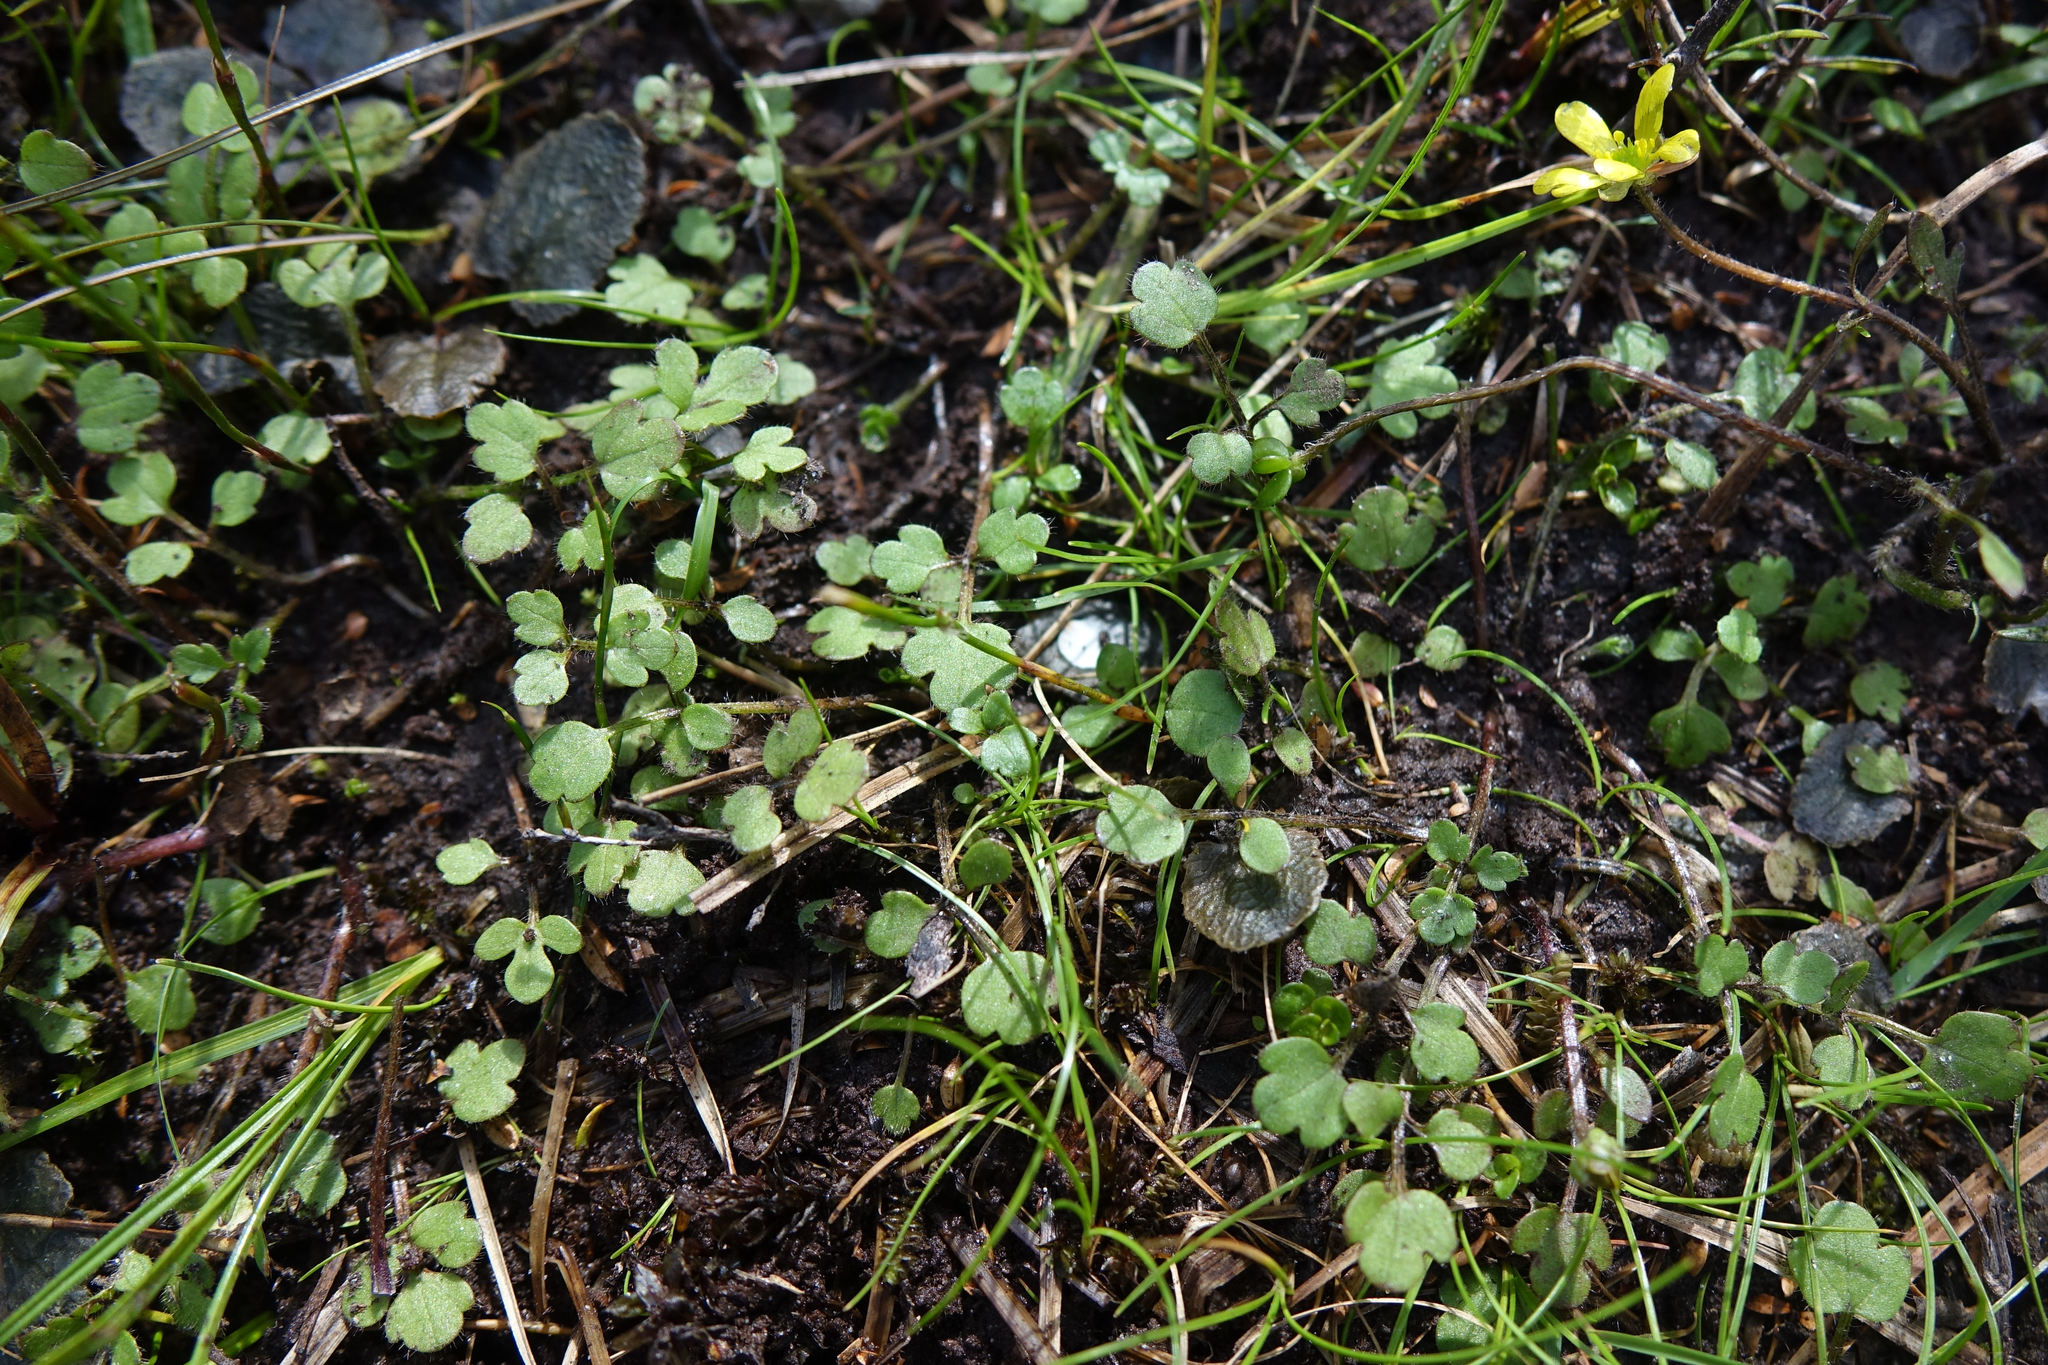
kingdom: Plantae
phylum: Tracheophyta
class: Magnoliopsida
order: Ranunculales
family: Ranunculaceae
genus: Ranunculus
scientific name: Ranunculus kirkii
